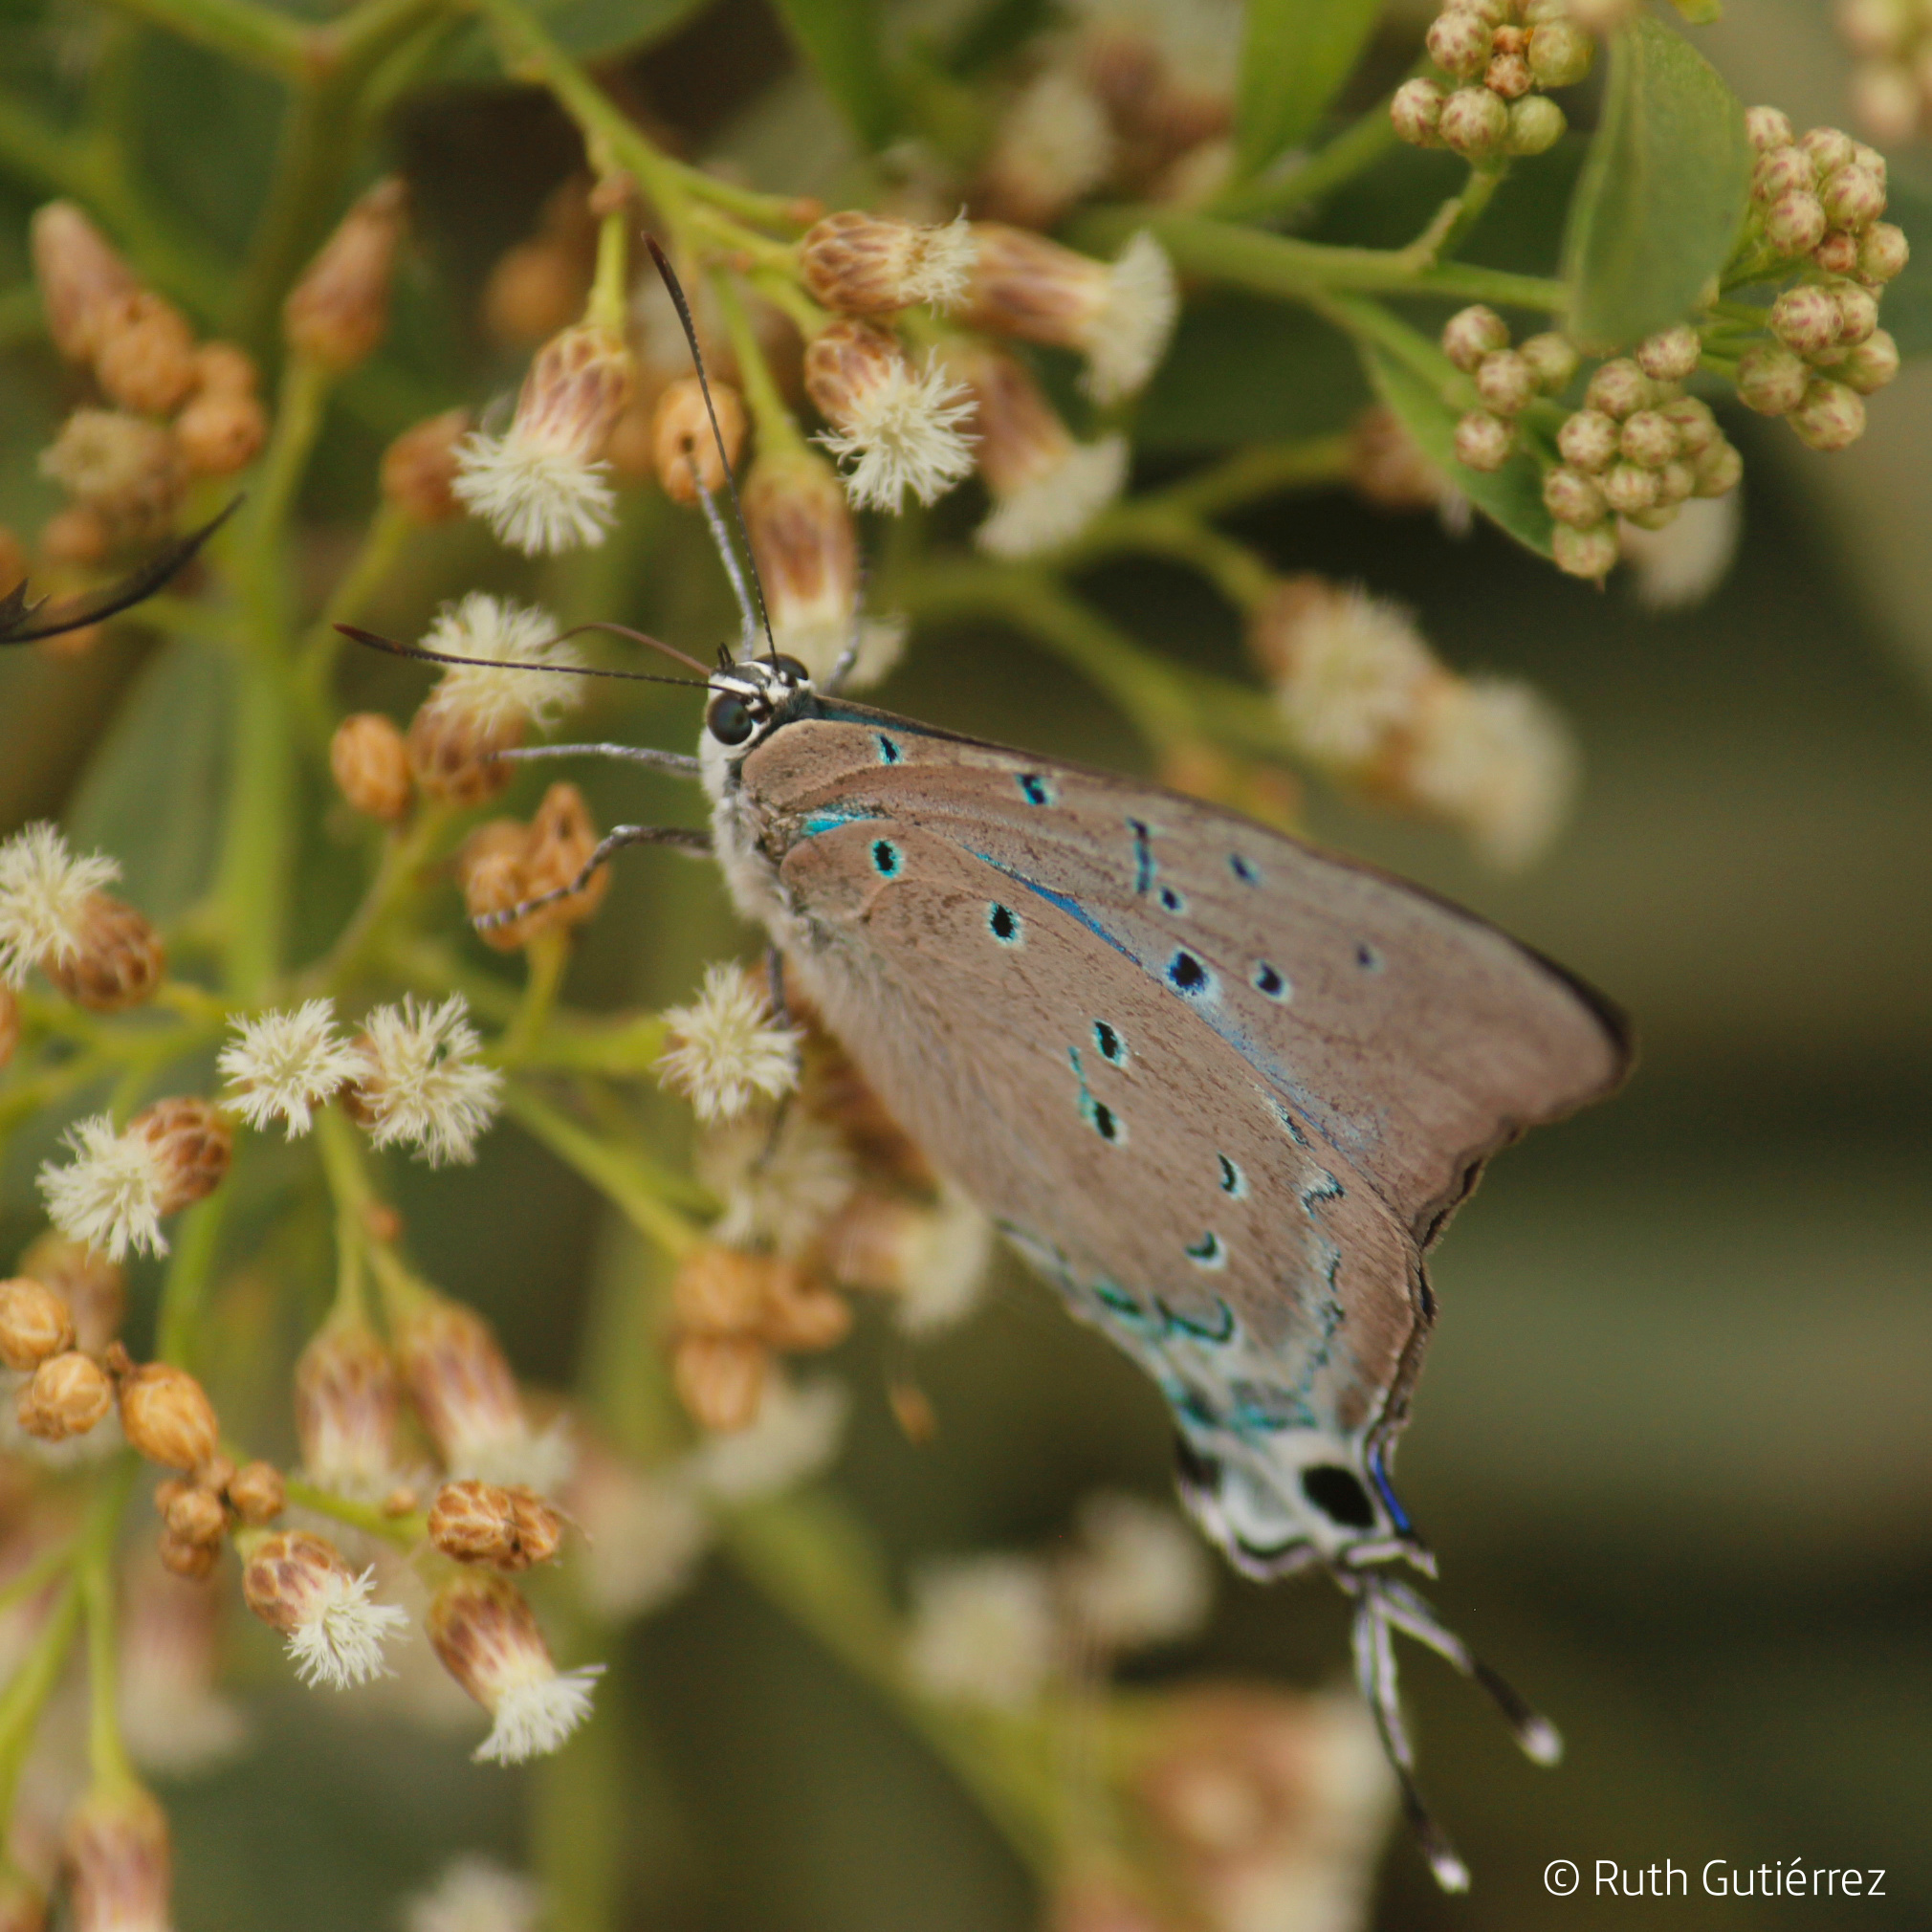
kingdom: Animalia
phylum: Arthropoda
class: Insecta
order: Lepidoptera
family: Lycaenidae
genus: Pseudolycaena
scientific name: Pseudolycaena marsyas
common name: Marsyas hairstreak
